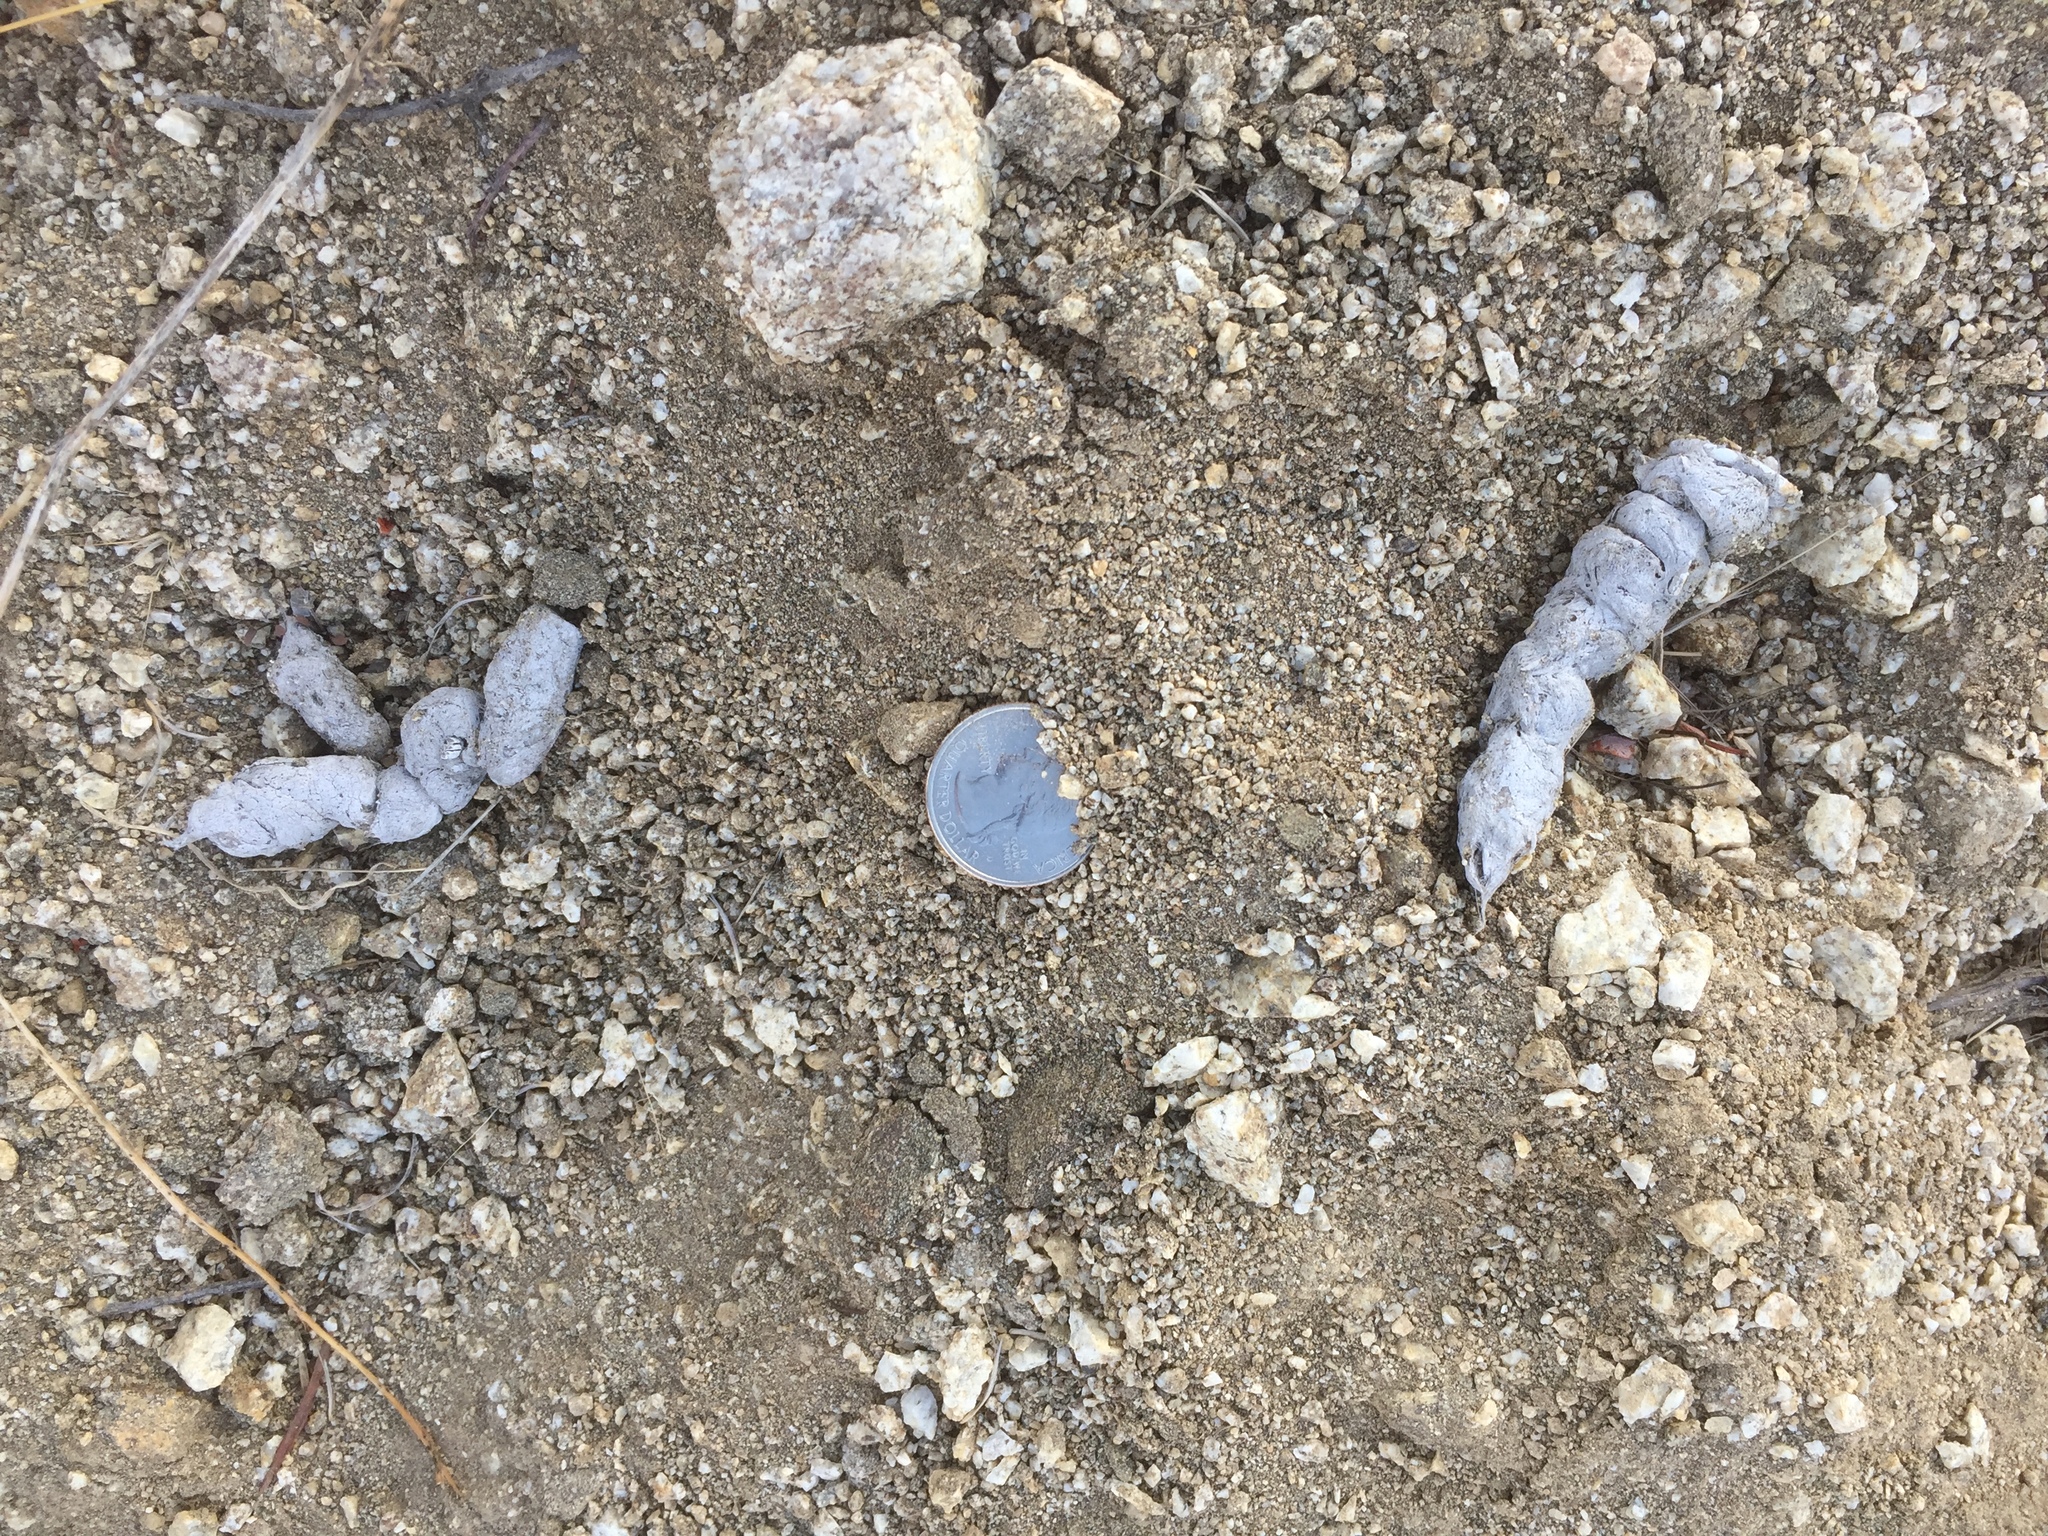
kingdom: Animalia
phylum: Chordata
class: Mammalia
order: Carnivora
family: Felidae
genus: Lynx
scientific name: Lynx rufus
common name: Bobcat
